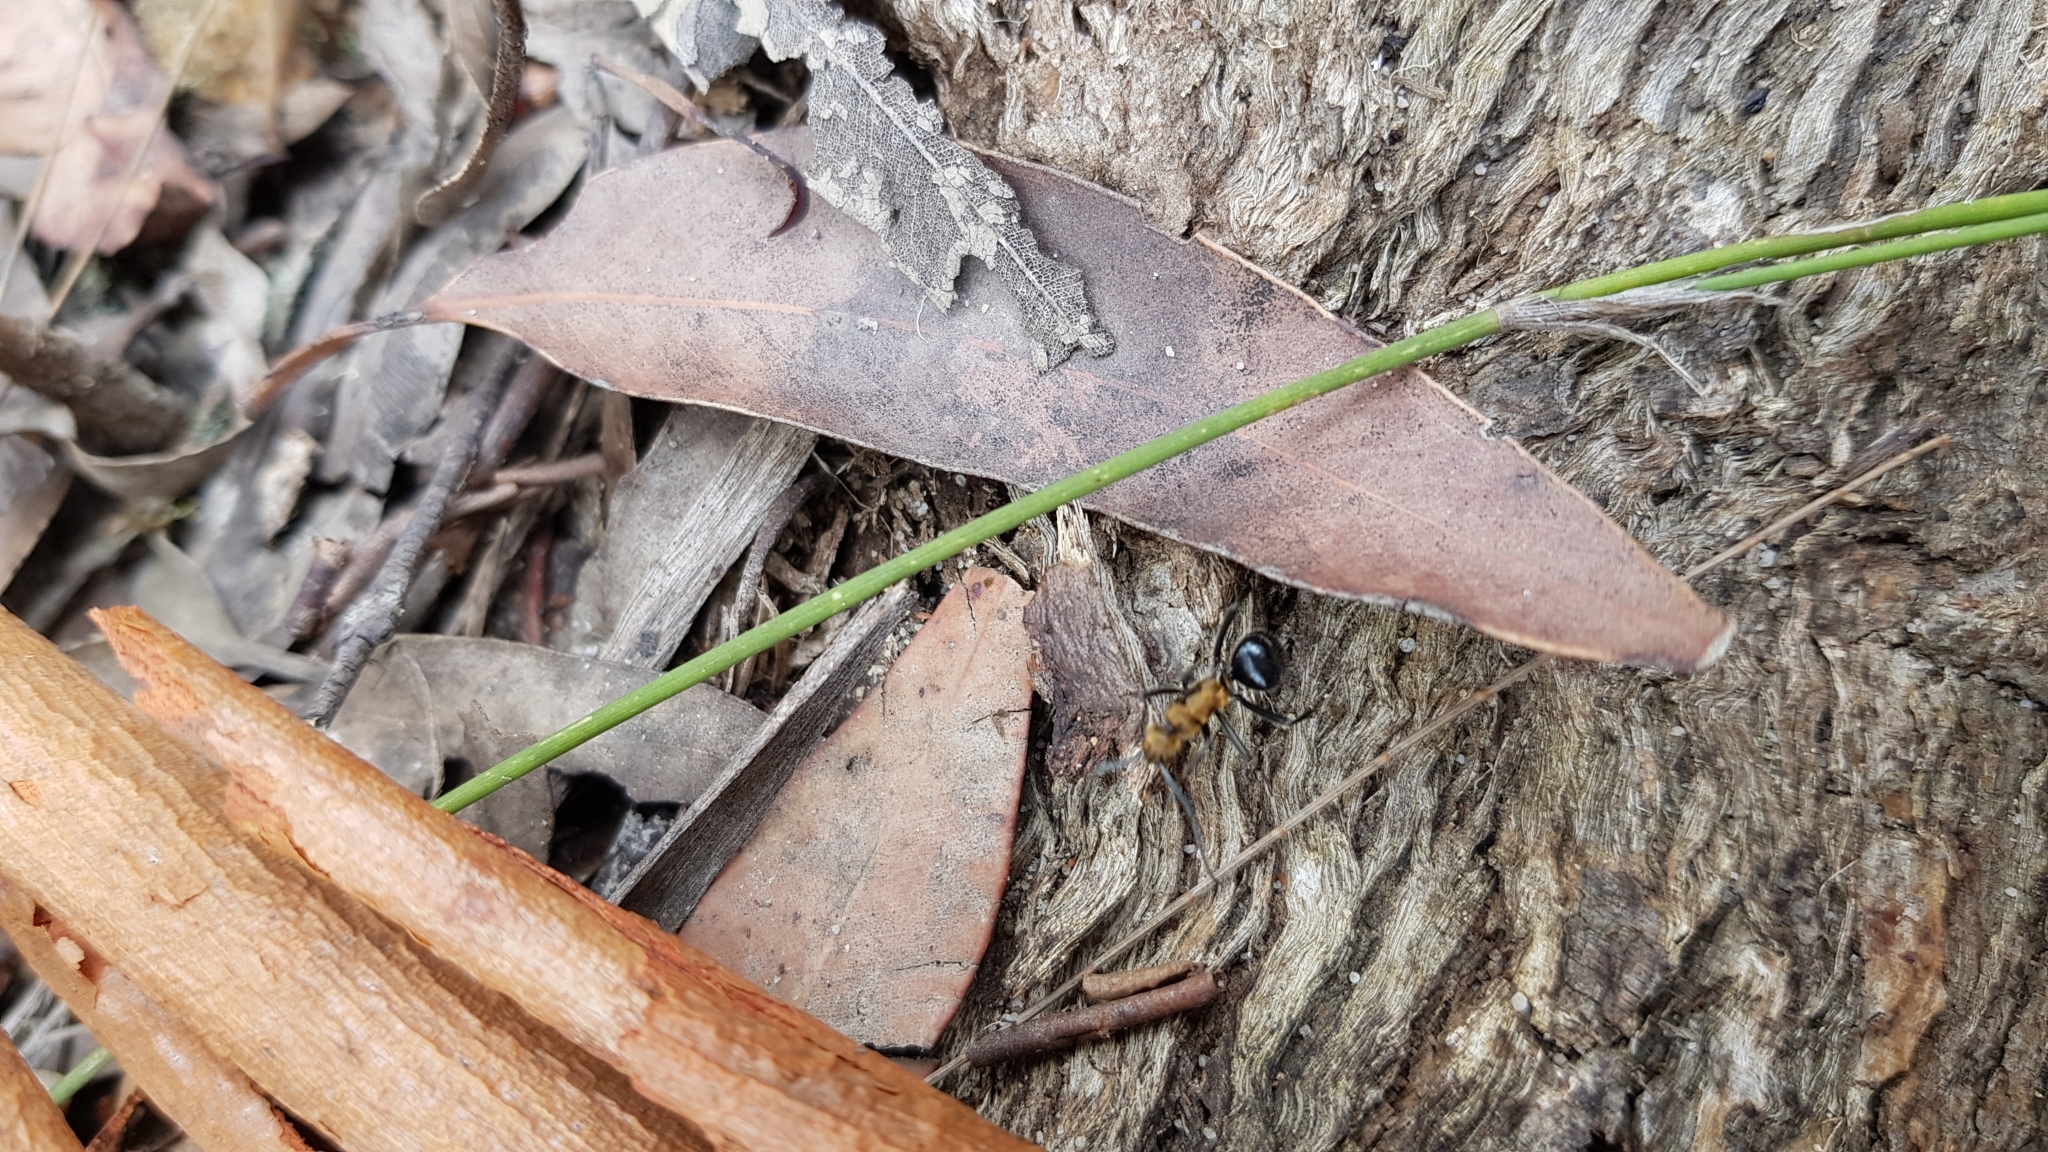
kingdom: Animalia
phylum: Arthropoda
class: Insecta
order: Hymenoptera
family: Formicidae
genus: Polyrhachis
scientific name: Polyrhachis semiaurata
